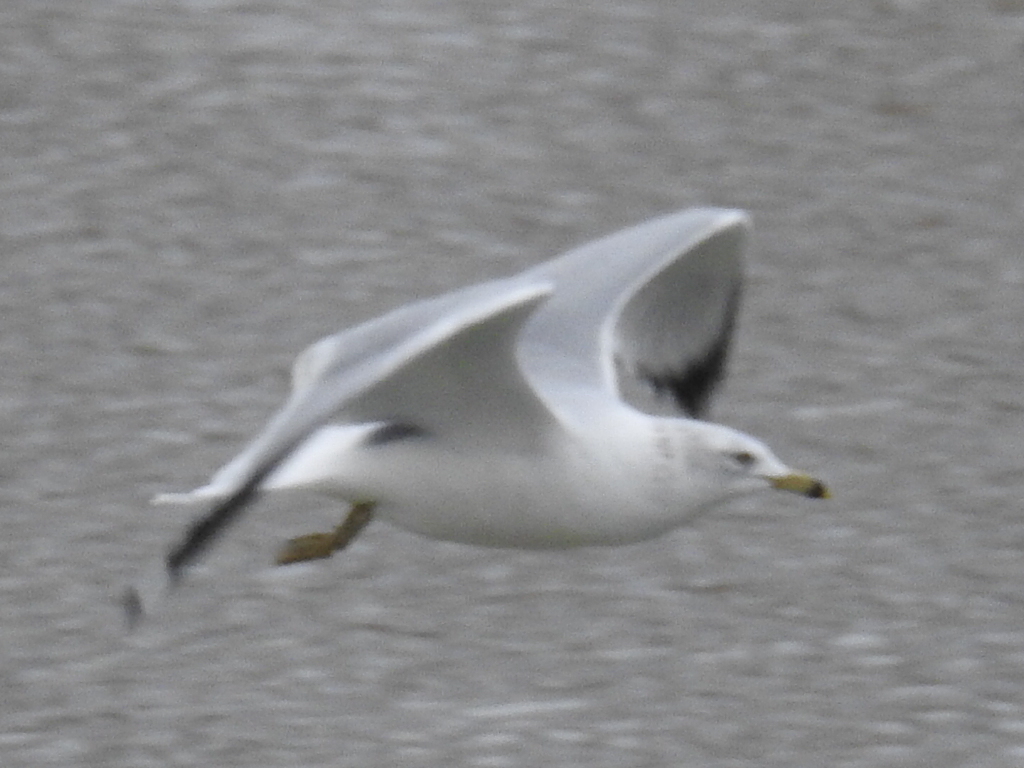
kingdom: Animalia
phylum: Chordata
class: Aves
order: Charadriiformes
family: Laridae
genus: Larus
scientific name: Larus delawarensis
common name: Ring-billed gull
